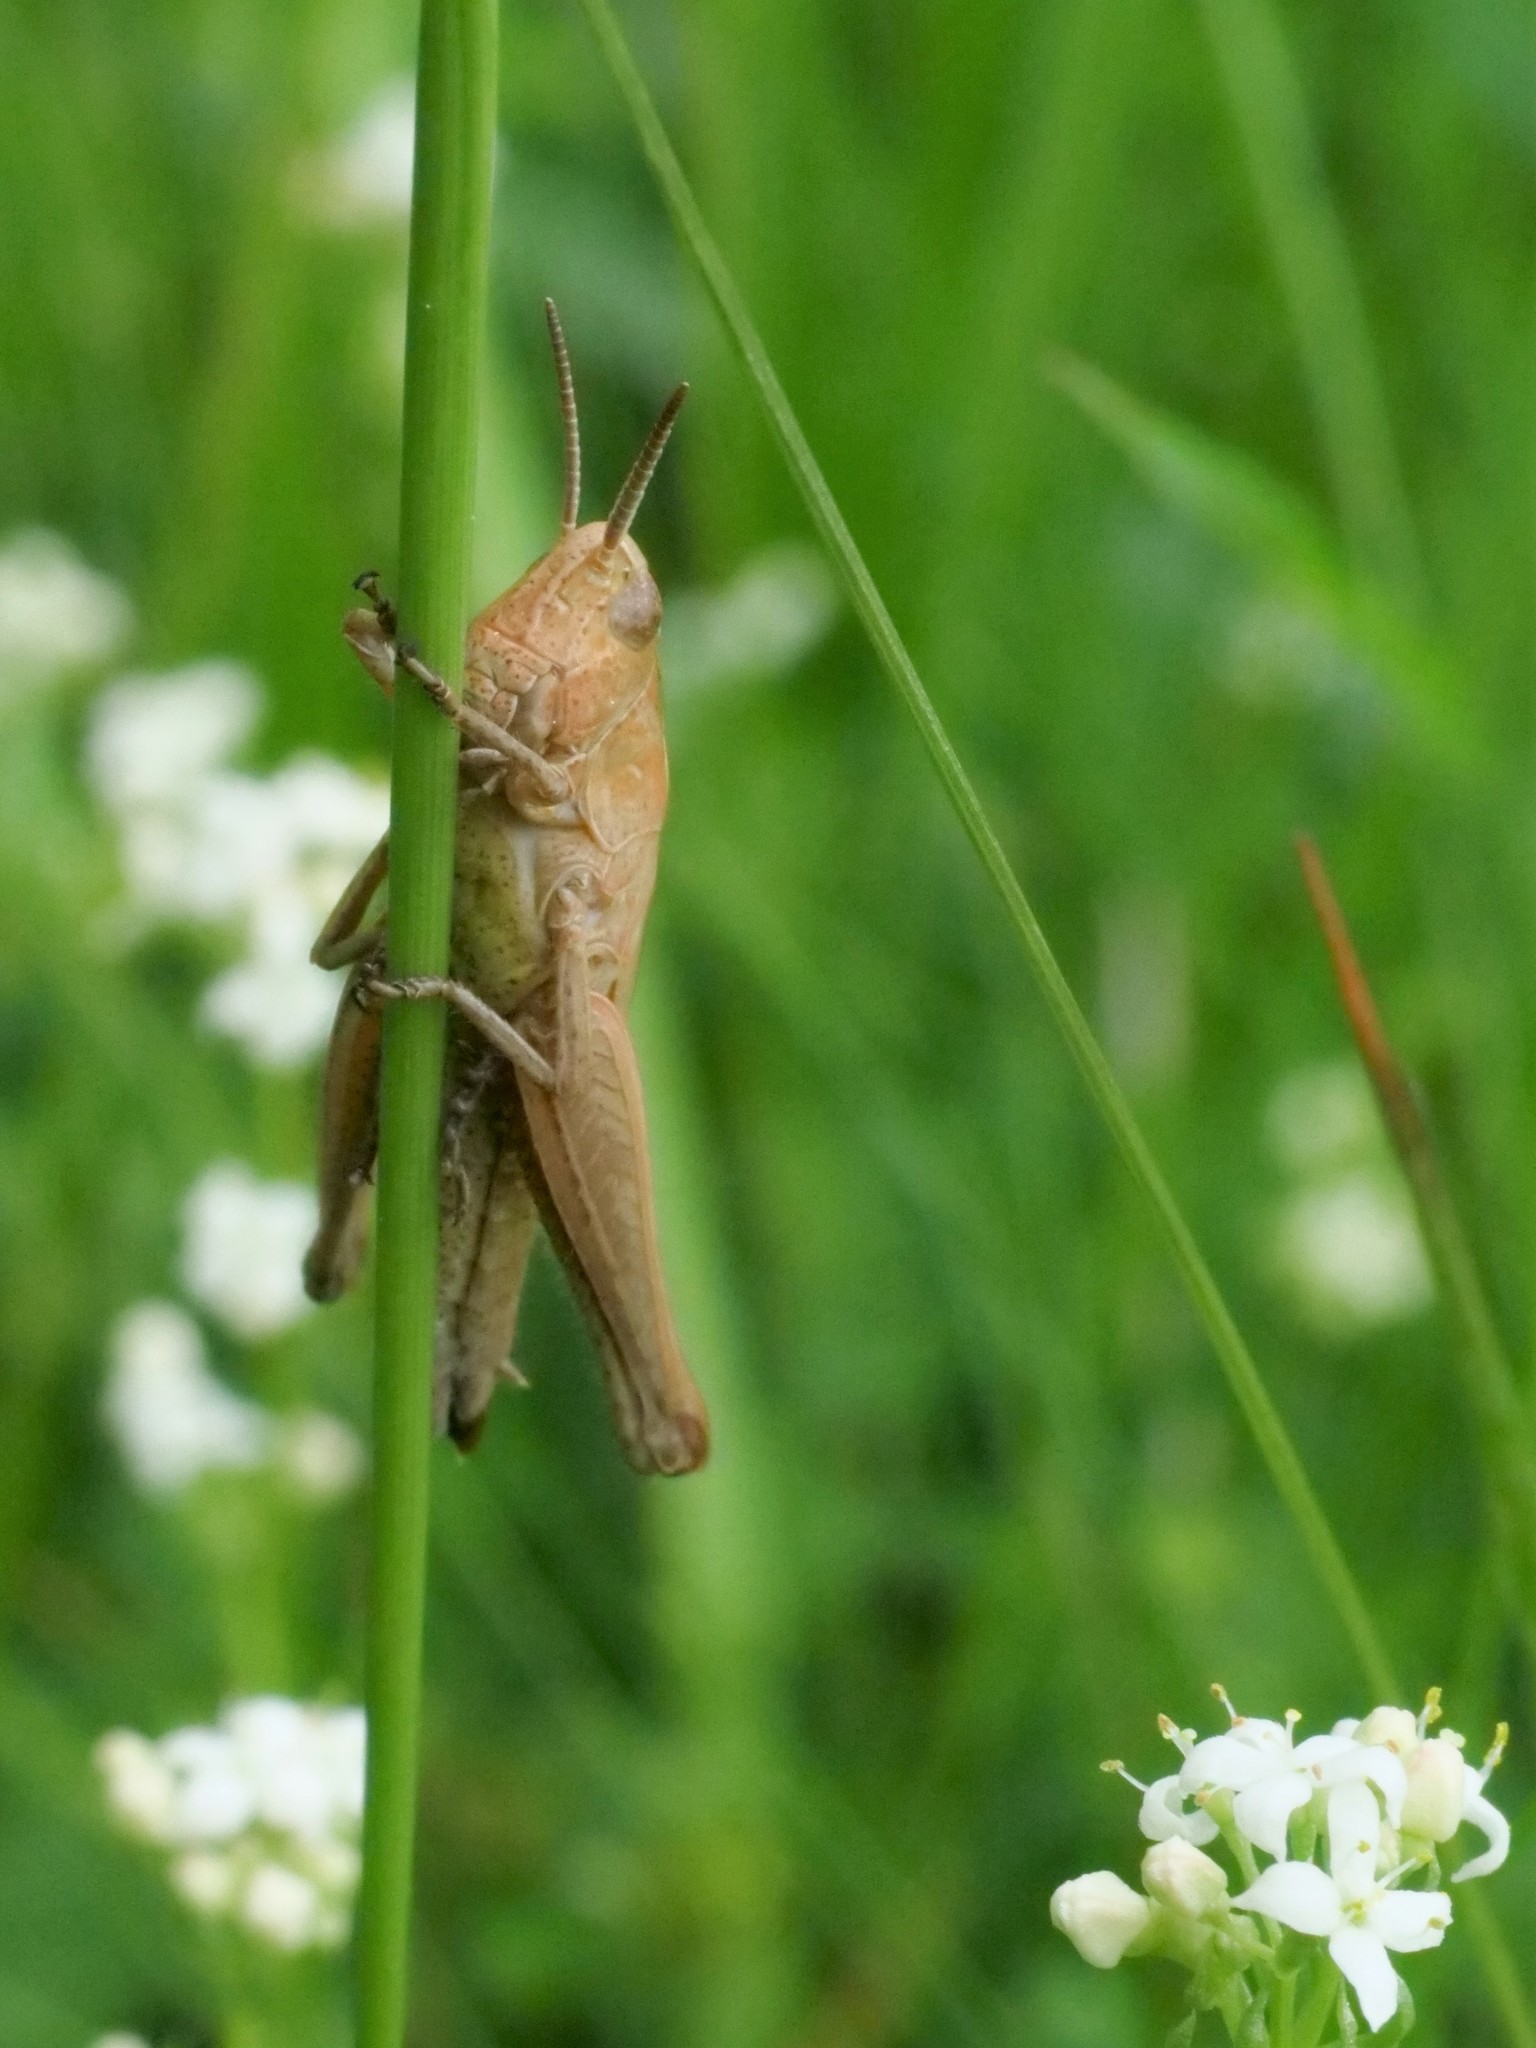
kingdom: Animalia
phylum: Arthropoda
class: Insecta
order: Orthoptera
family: Acrididae
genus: Omocestus
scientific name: Omocestus viridulus
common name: Common green grasshopper
